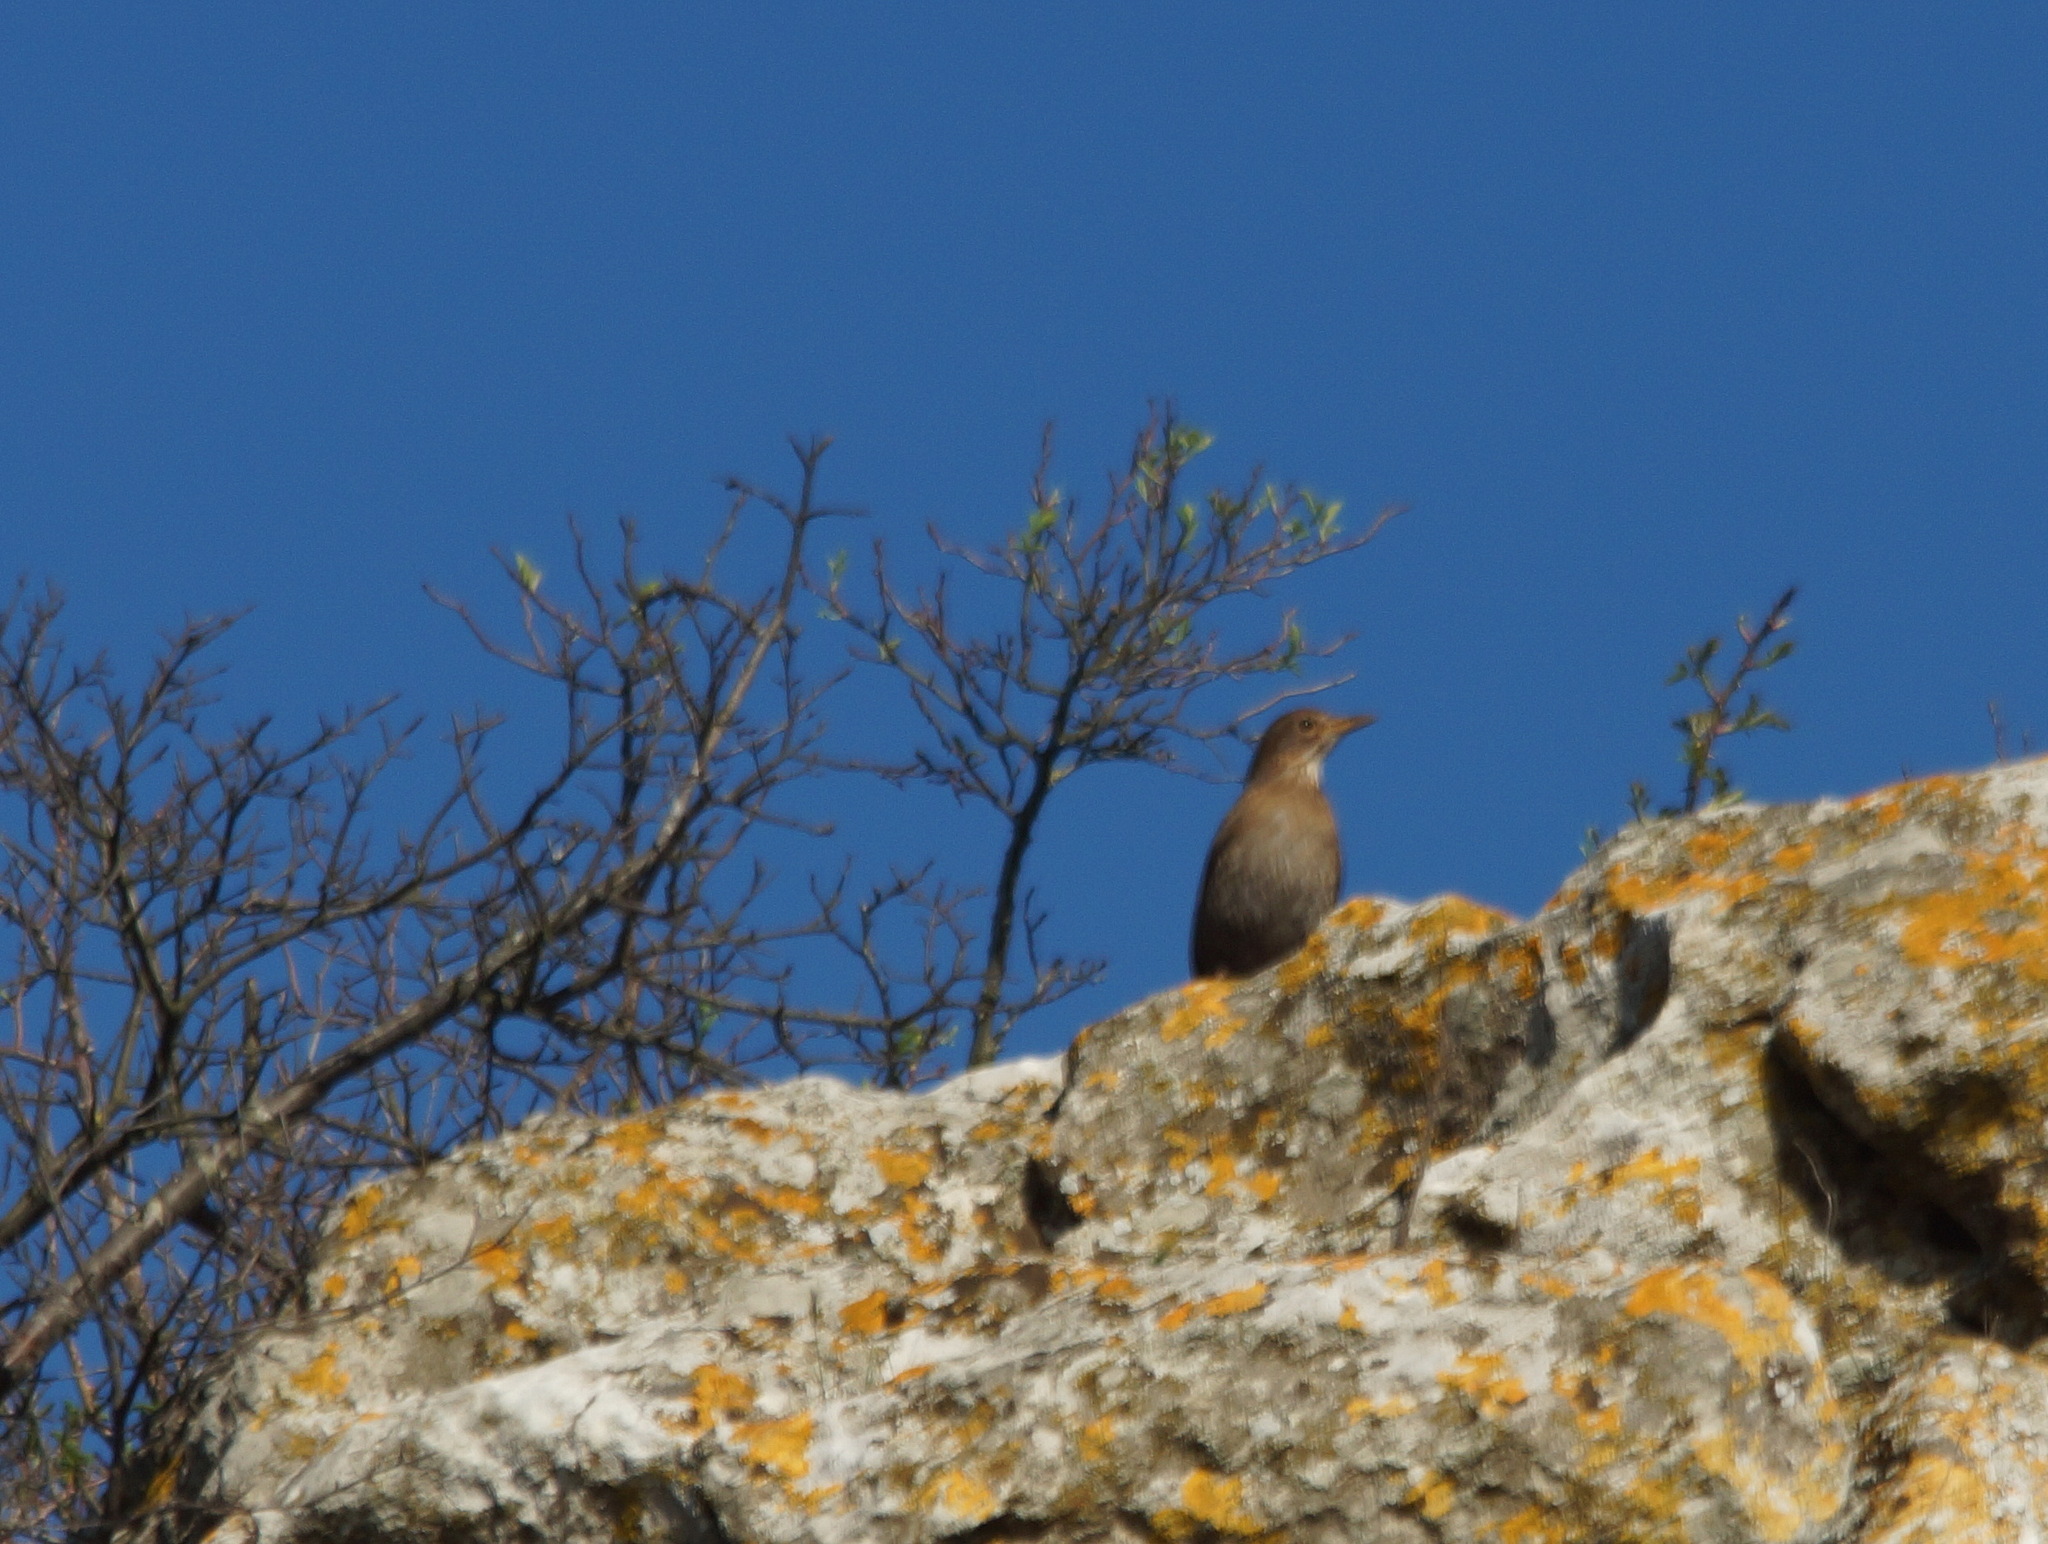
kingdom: Animalia
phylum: Chordata
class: Aves
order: Passeriformes
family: Turdidae
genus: Turdus
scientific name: Turdus merula
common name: Common blackbird
